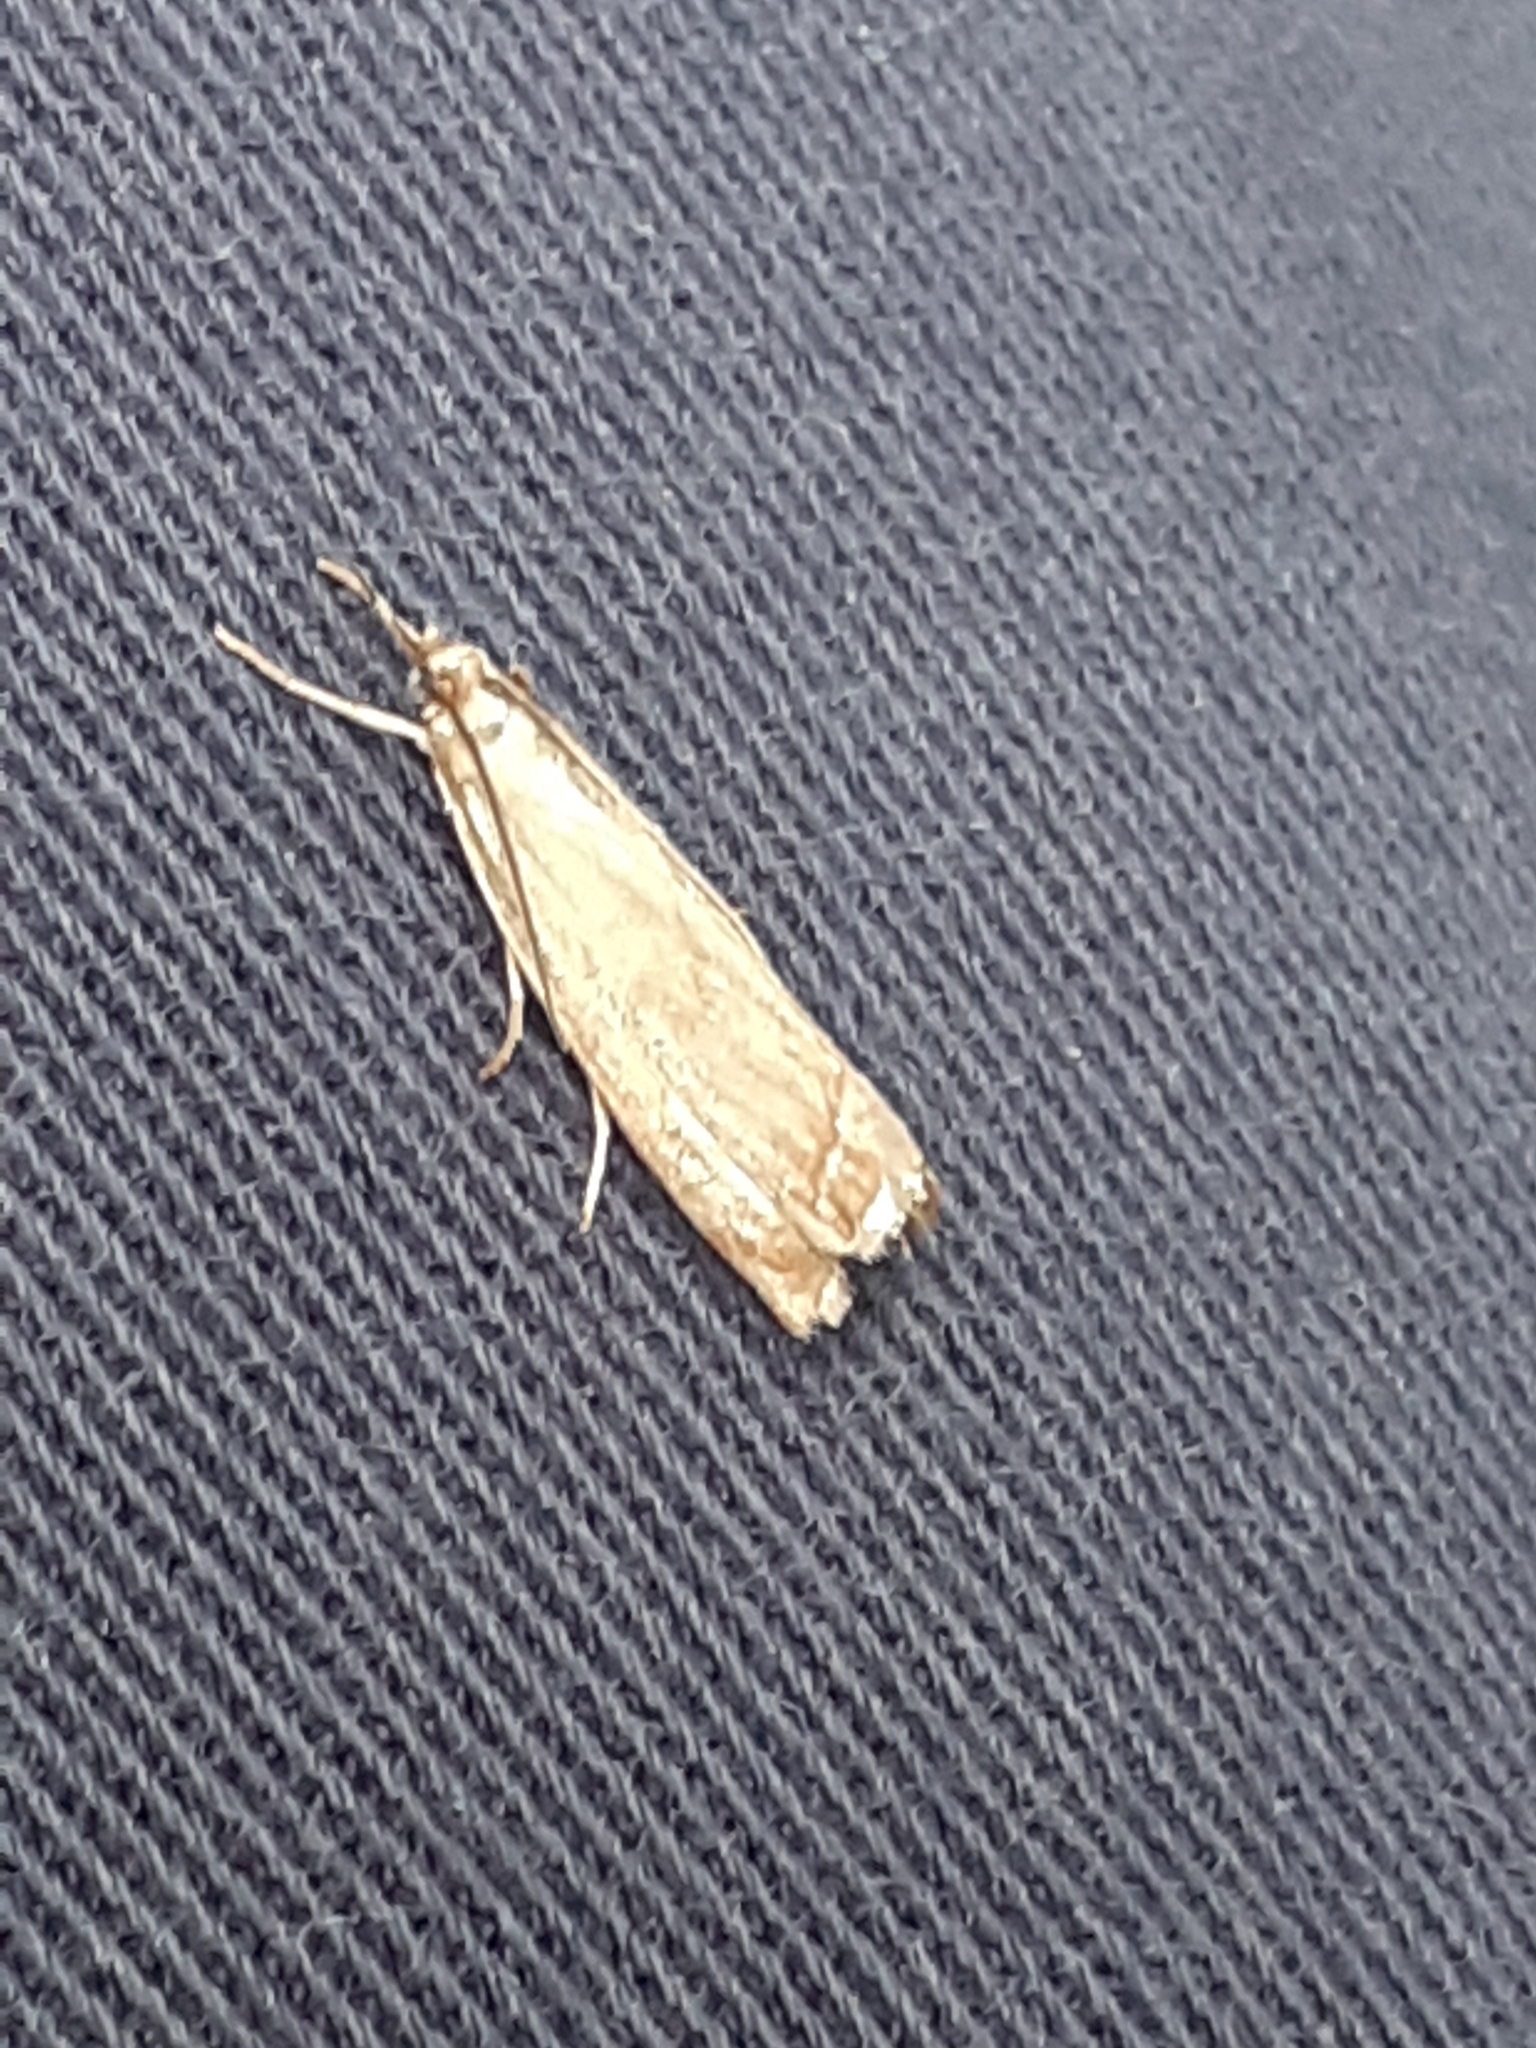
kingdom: Animalia
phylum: Arthropoda
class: Insecta
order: Lepidoptera
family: Crambidae
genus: Chrysoteuchia
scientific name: Chrysoteuchia culmella
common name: Garden grass-veneer
